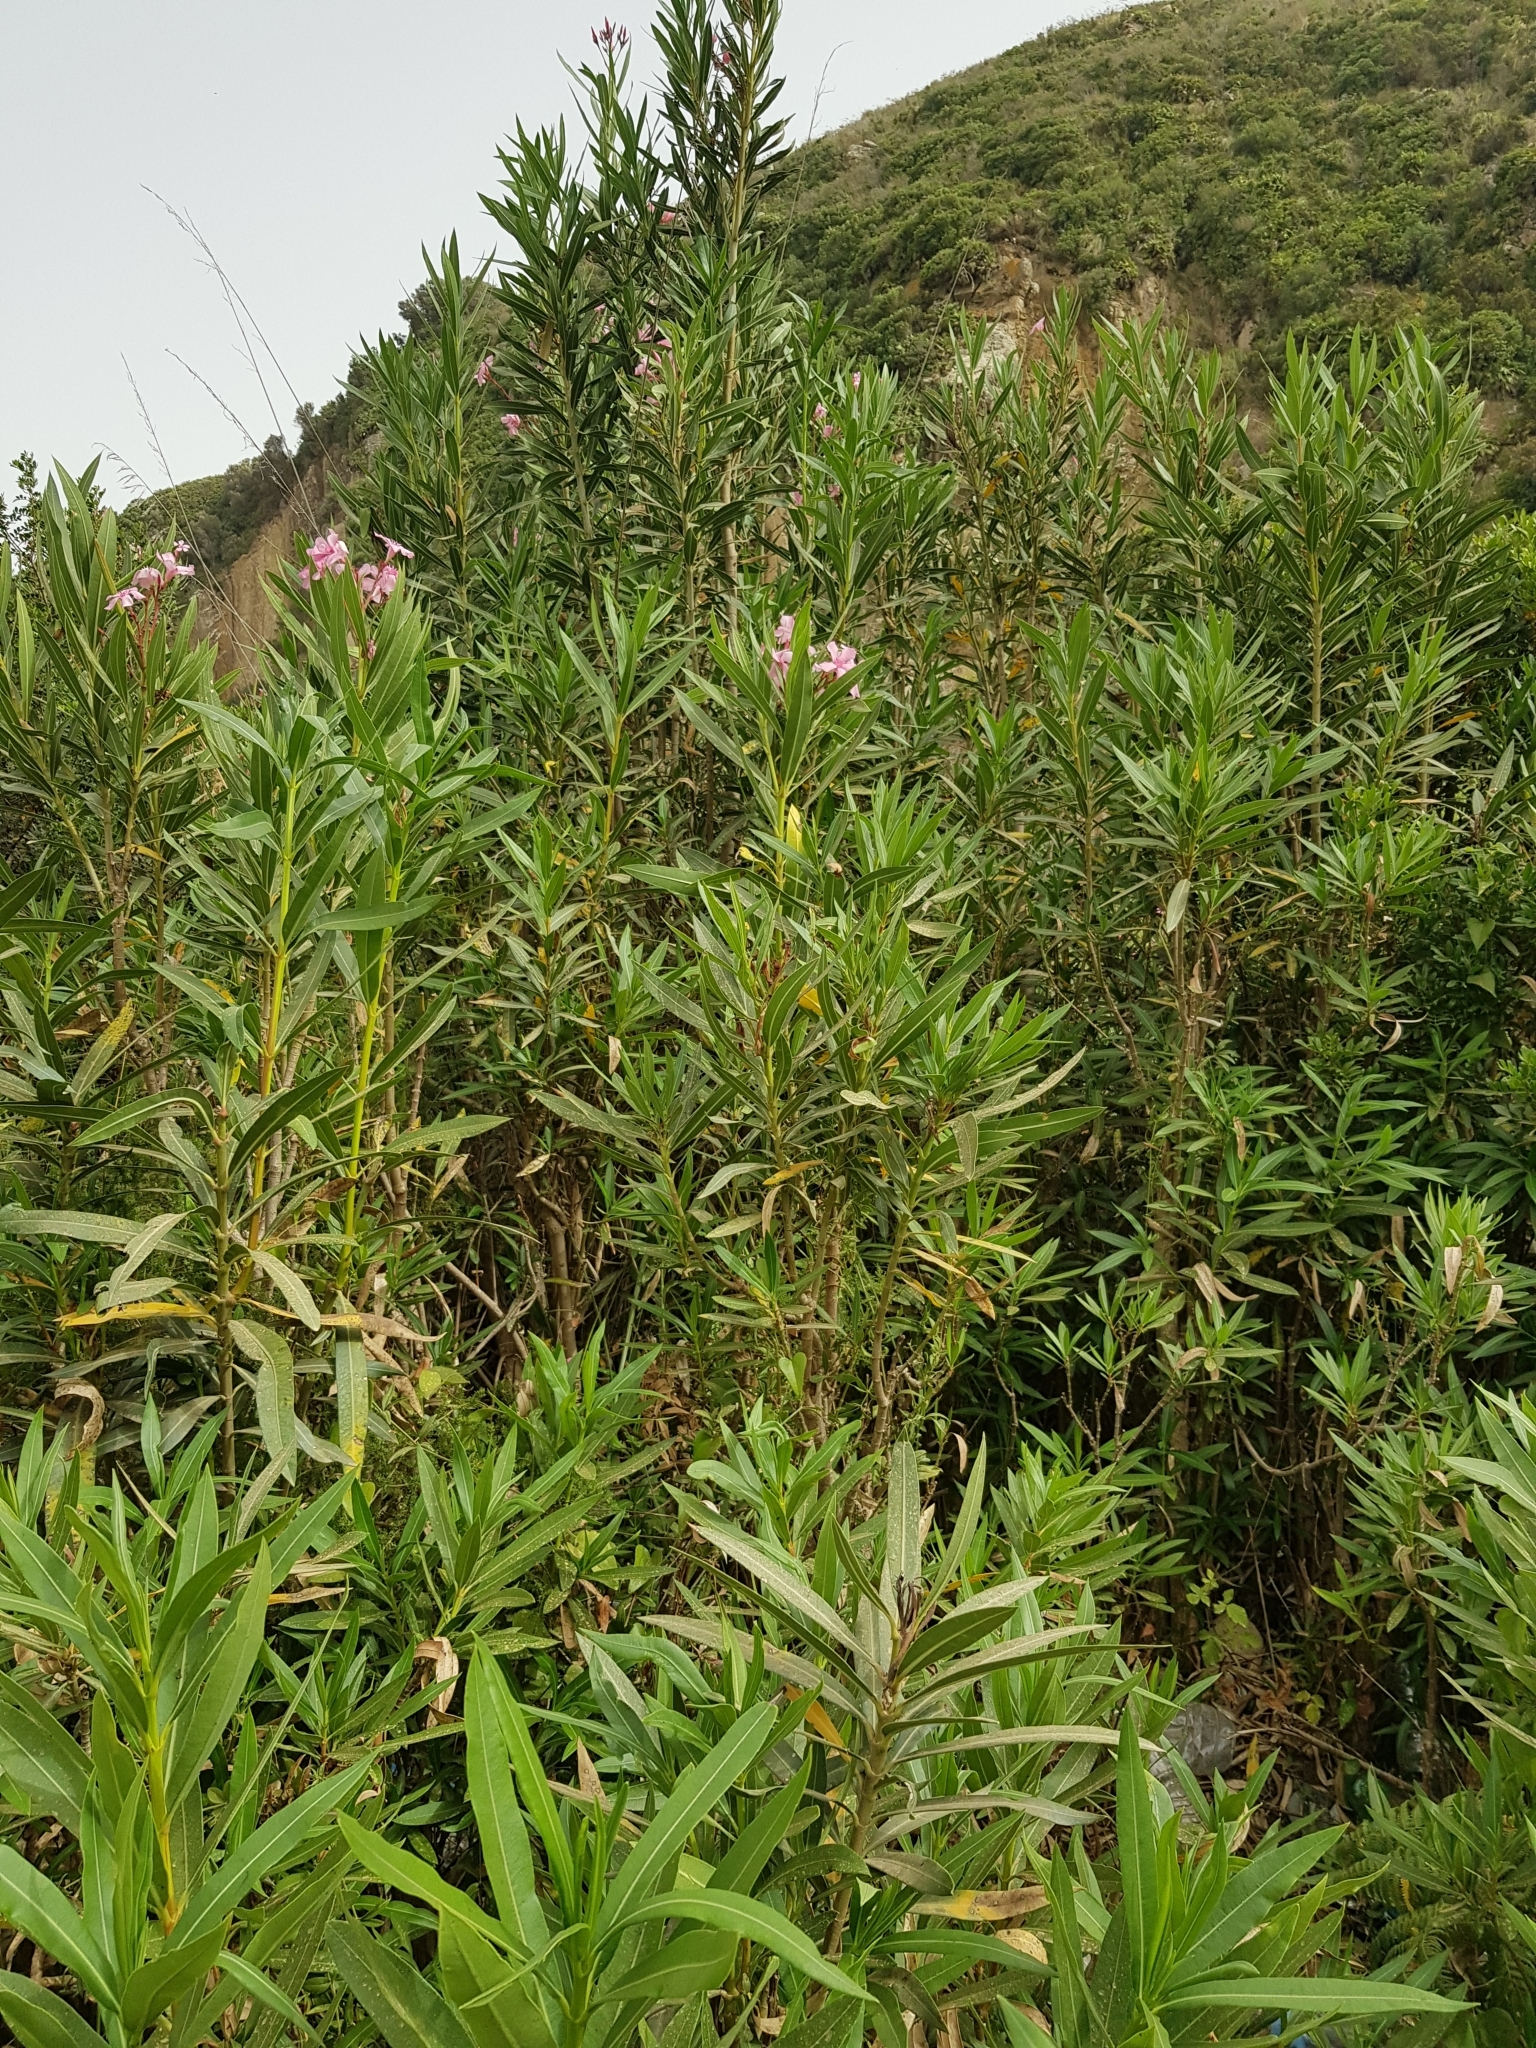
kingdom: Plantae
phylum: Tracheophyta
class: Magnoliopsida
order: Gentianales
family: Apocynaceae
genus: Nerium
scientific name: Nerium oleander
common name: Oleander
